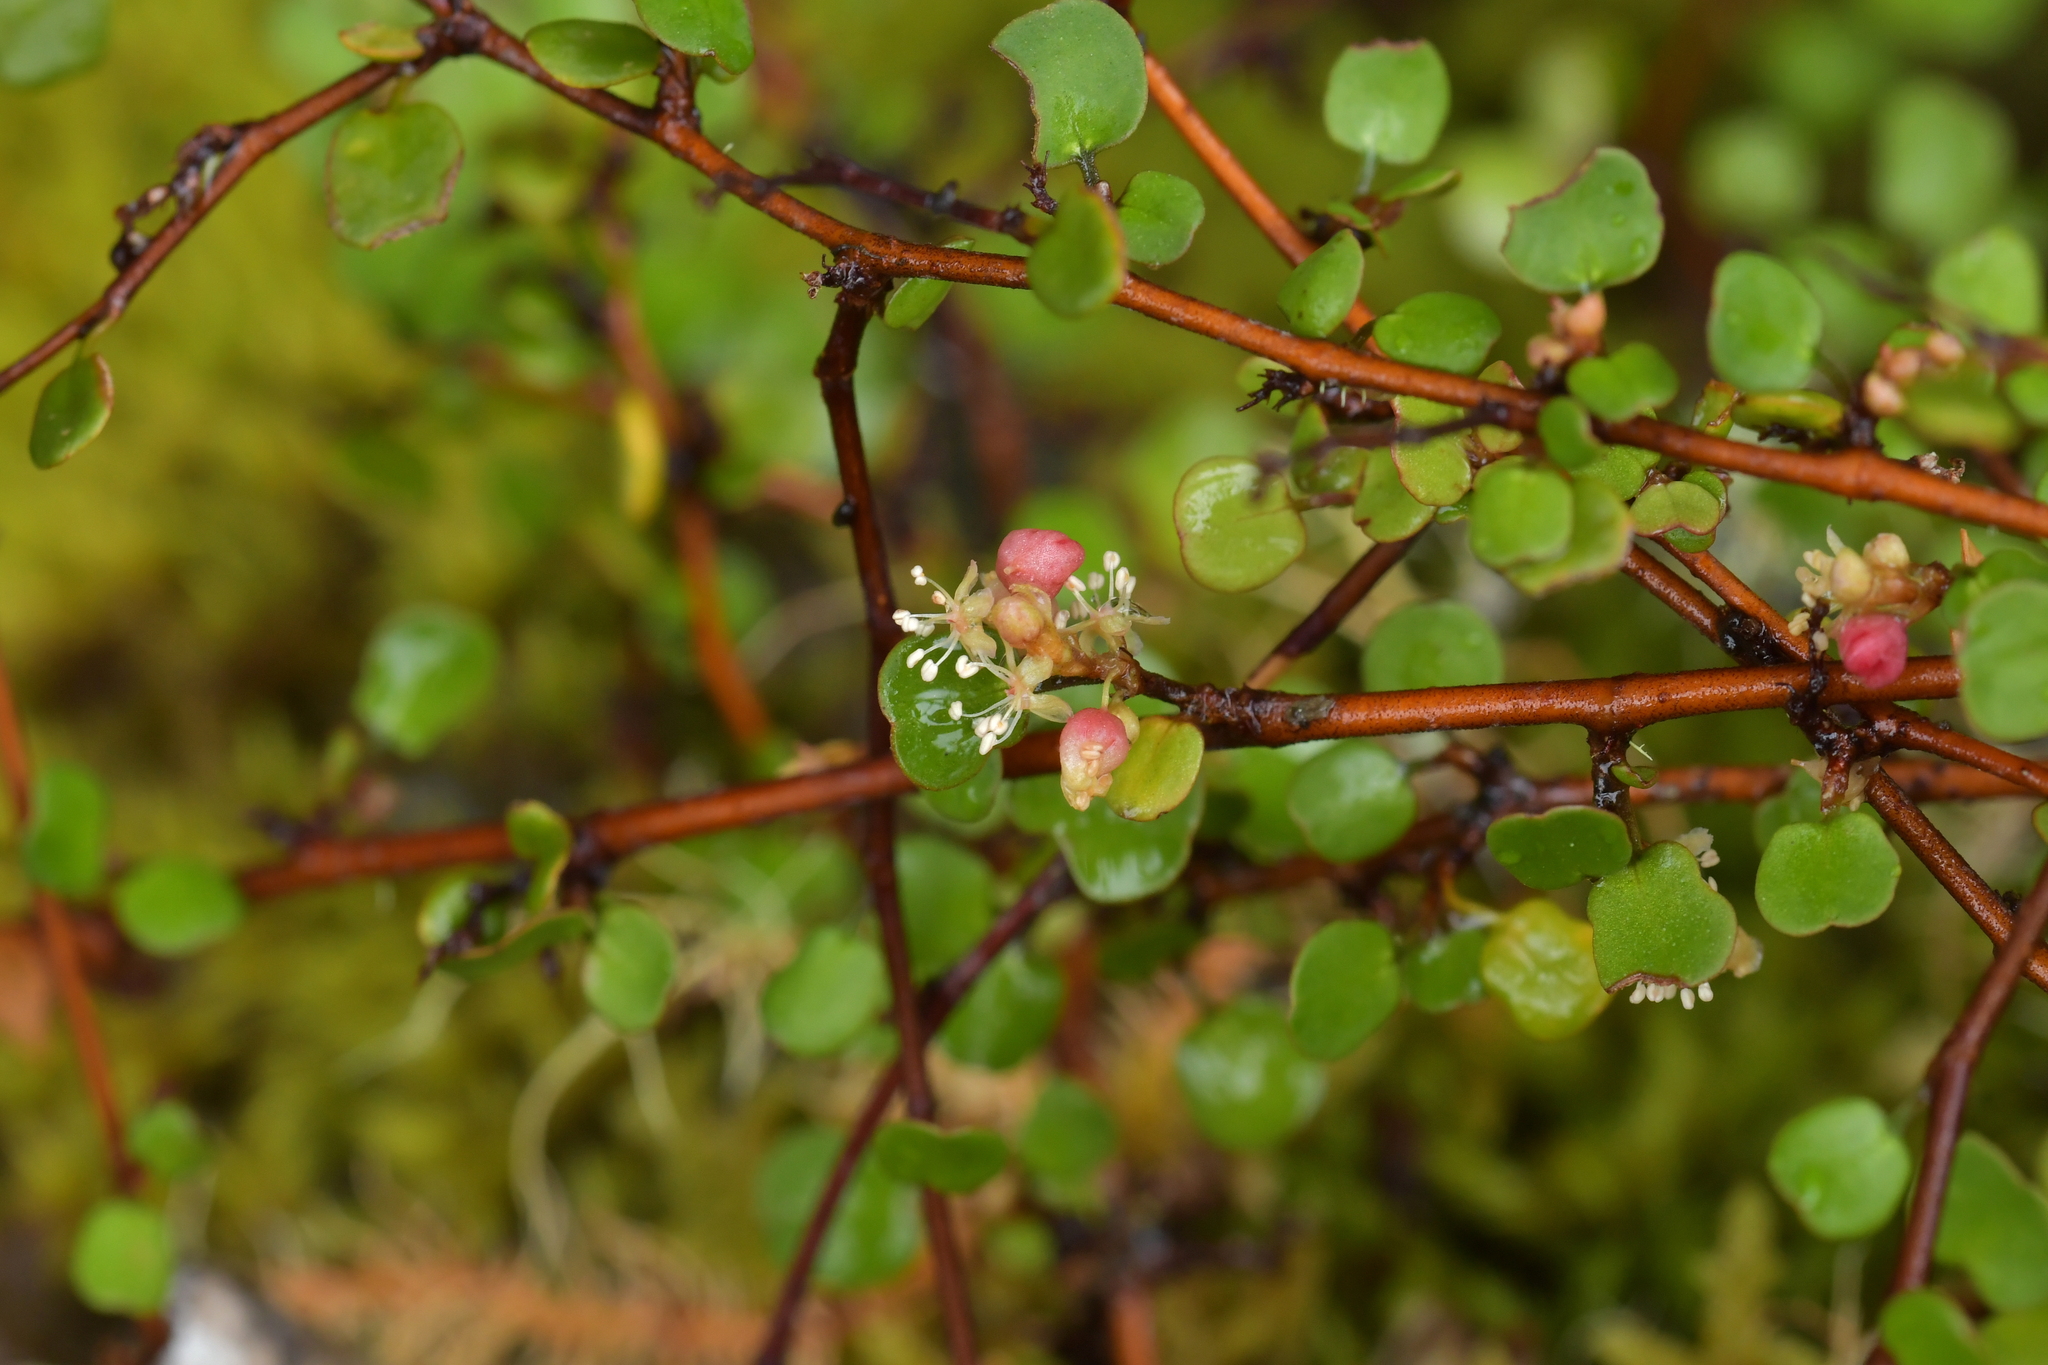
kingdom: Plantae
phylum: Tracheophyta
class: Magnoliopsida
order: Caryophyllales
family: Polygonaceae
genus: Muehlenbeckia
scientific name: Muehlenbeckia complexa
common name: Wireplant
